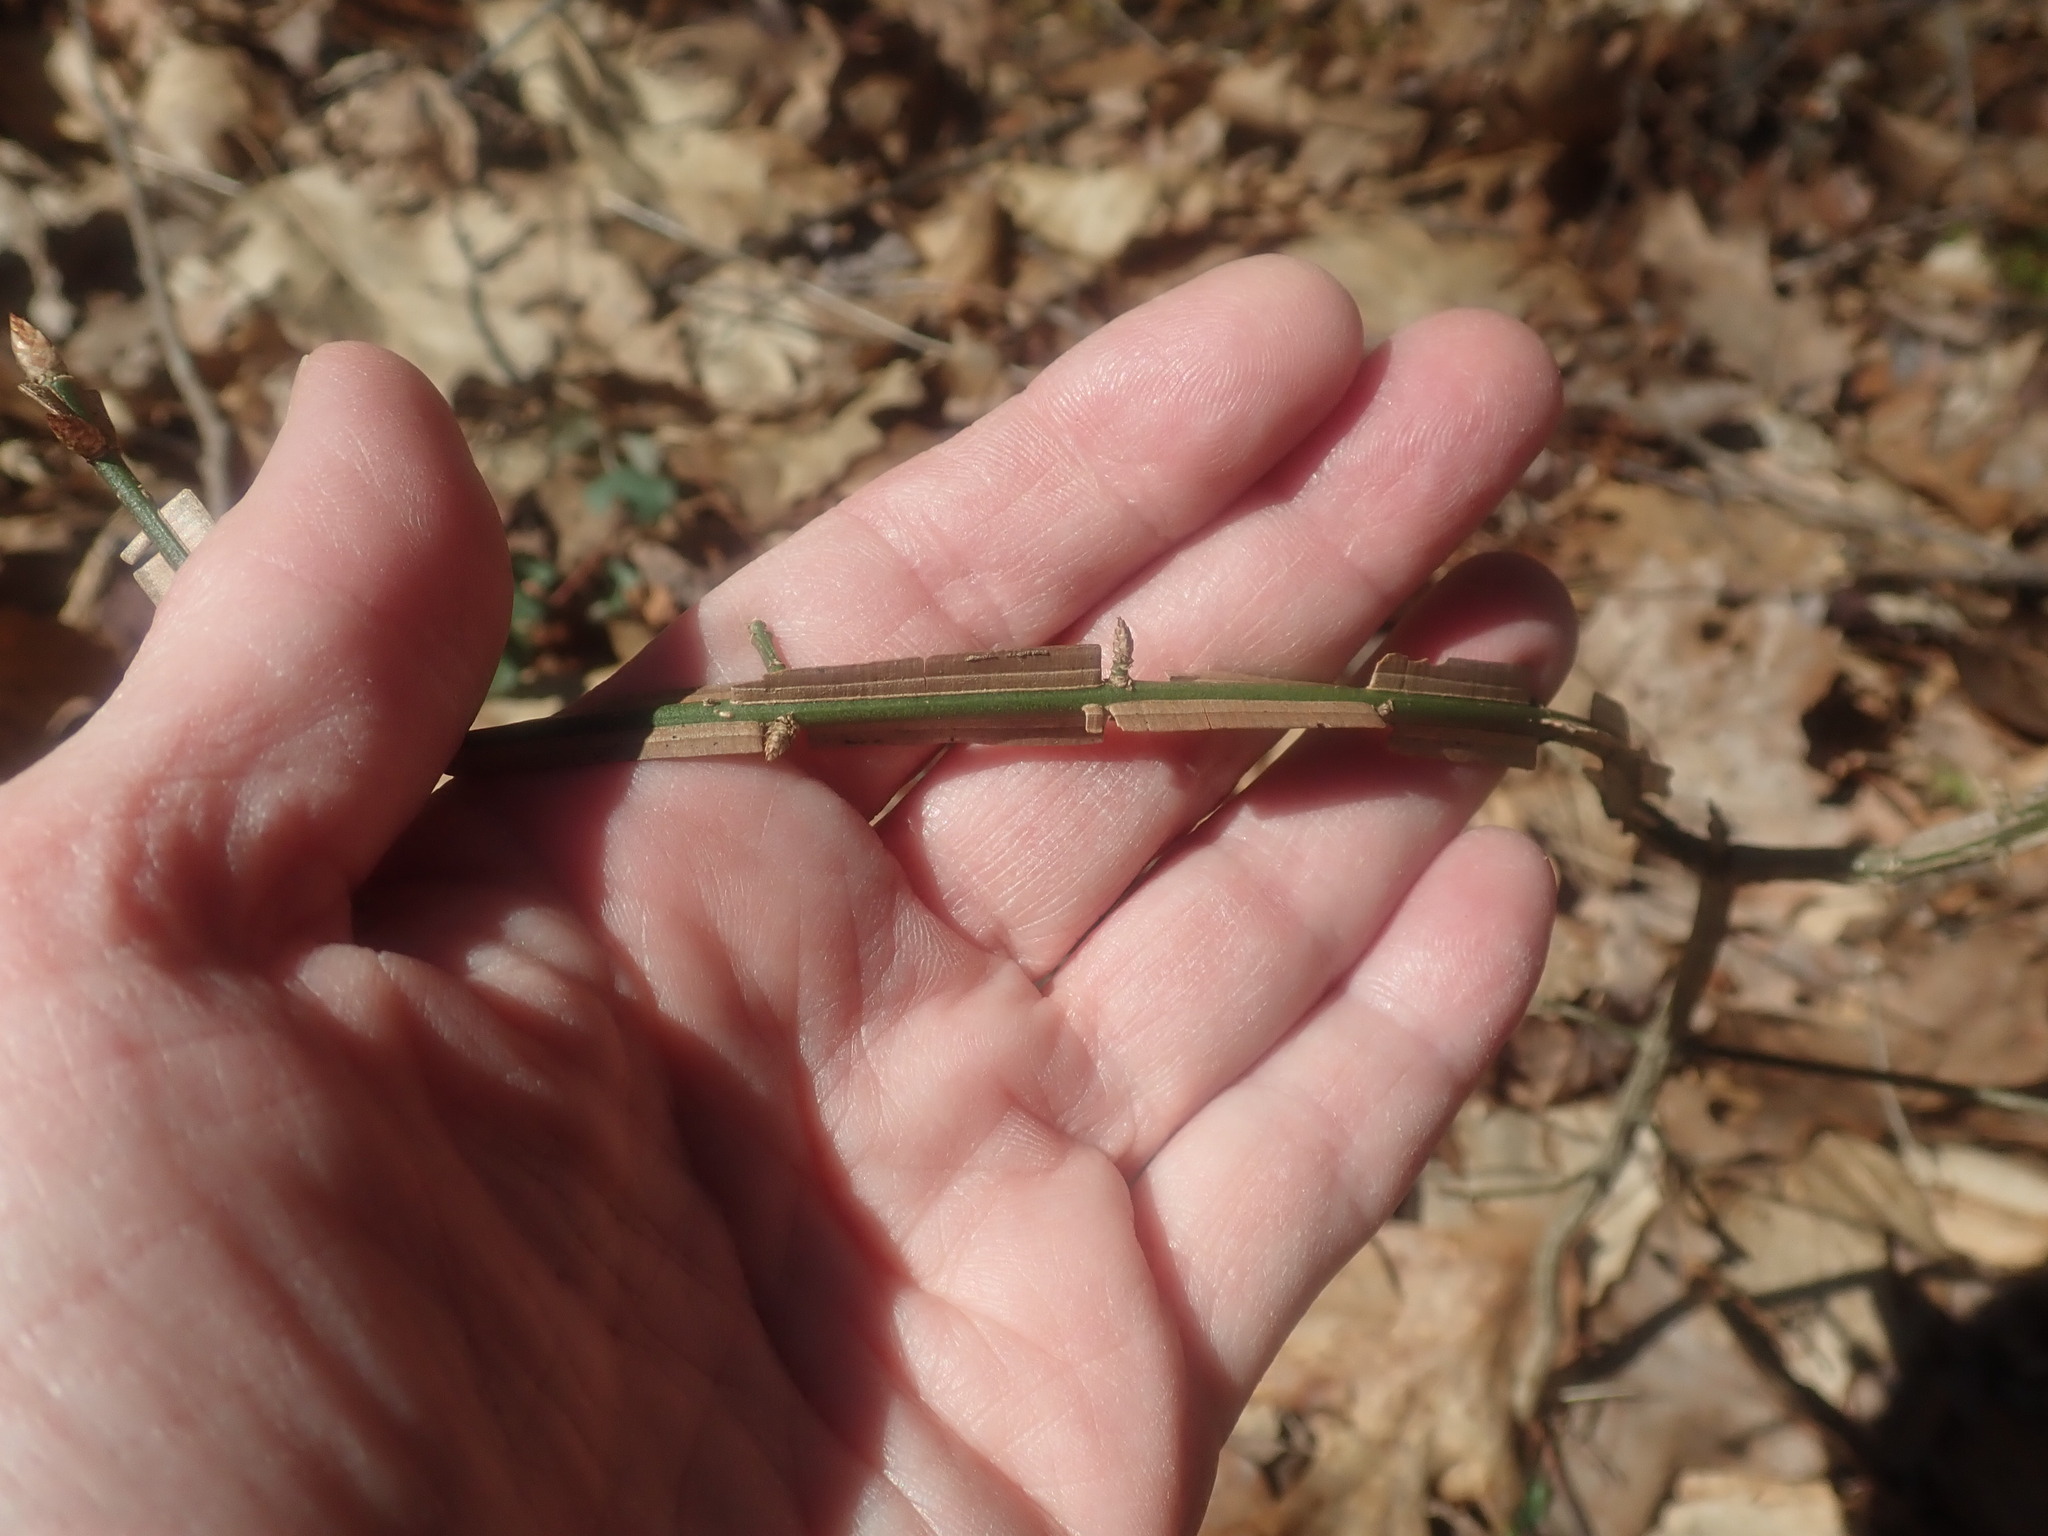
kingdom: Plantae
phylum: Tracheophyta
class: Magnoliopsida
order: Celastrales
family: Celastraceae
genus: Euonymus
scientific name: Euonymus alatus
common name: Winged euonymus
